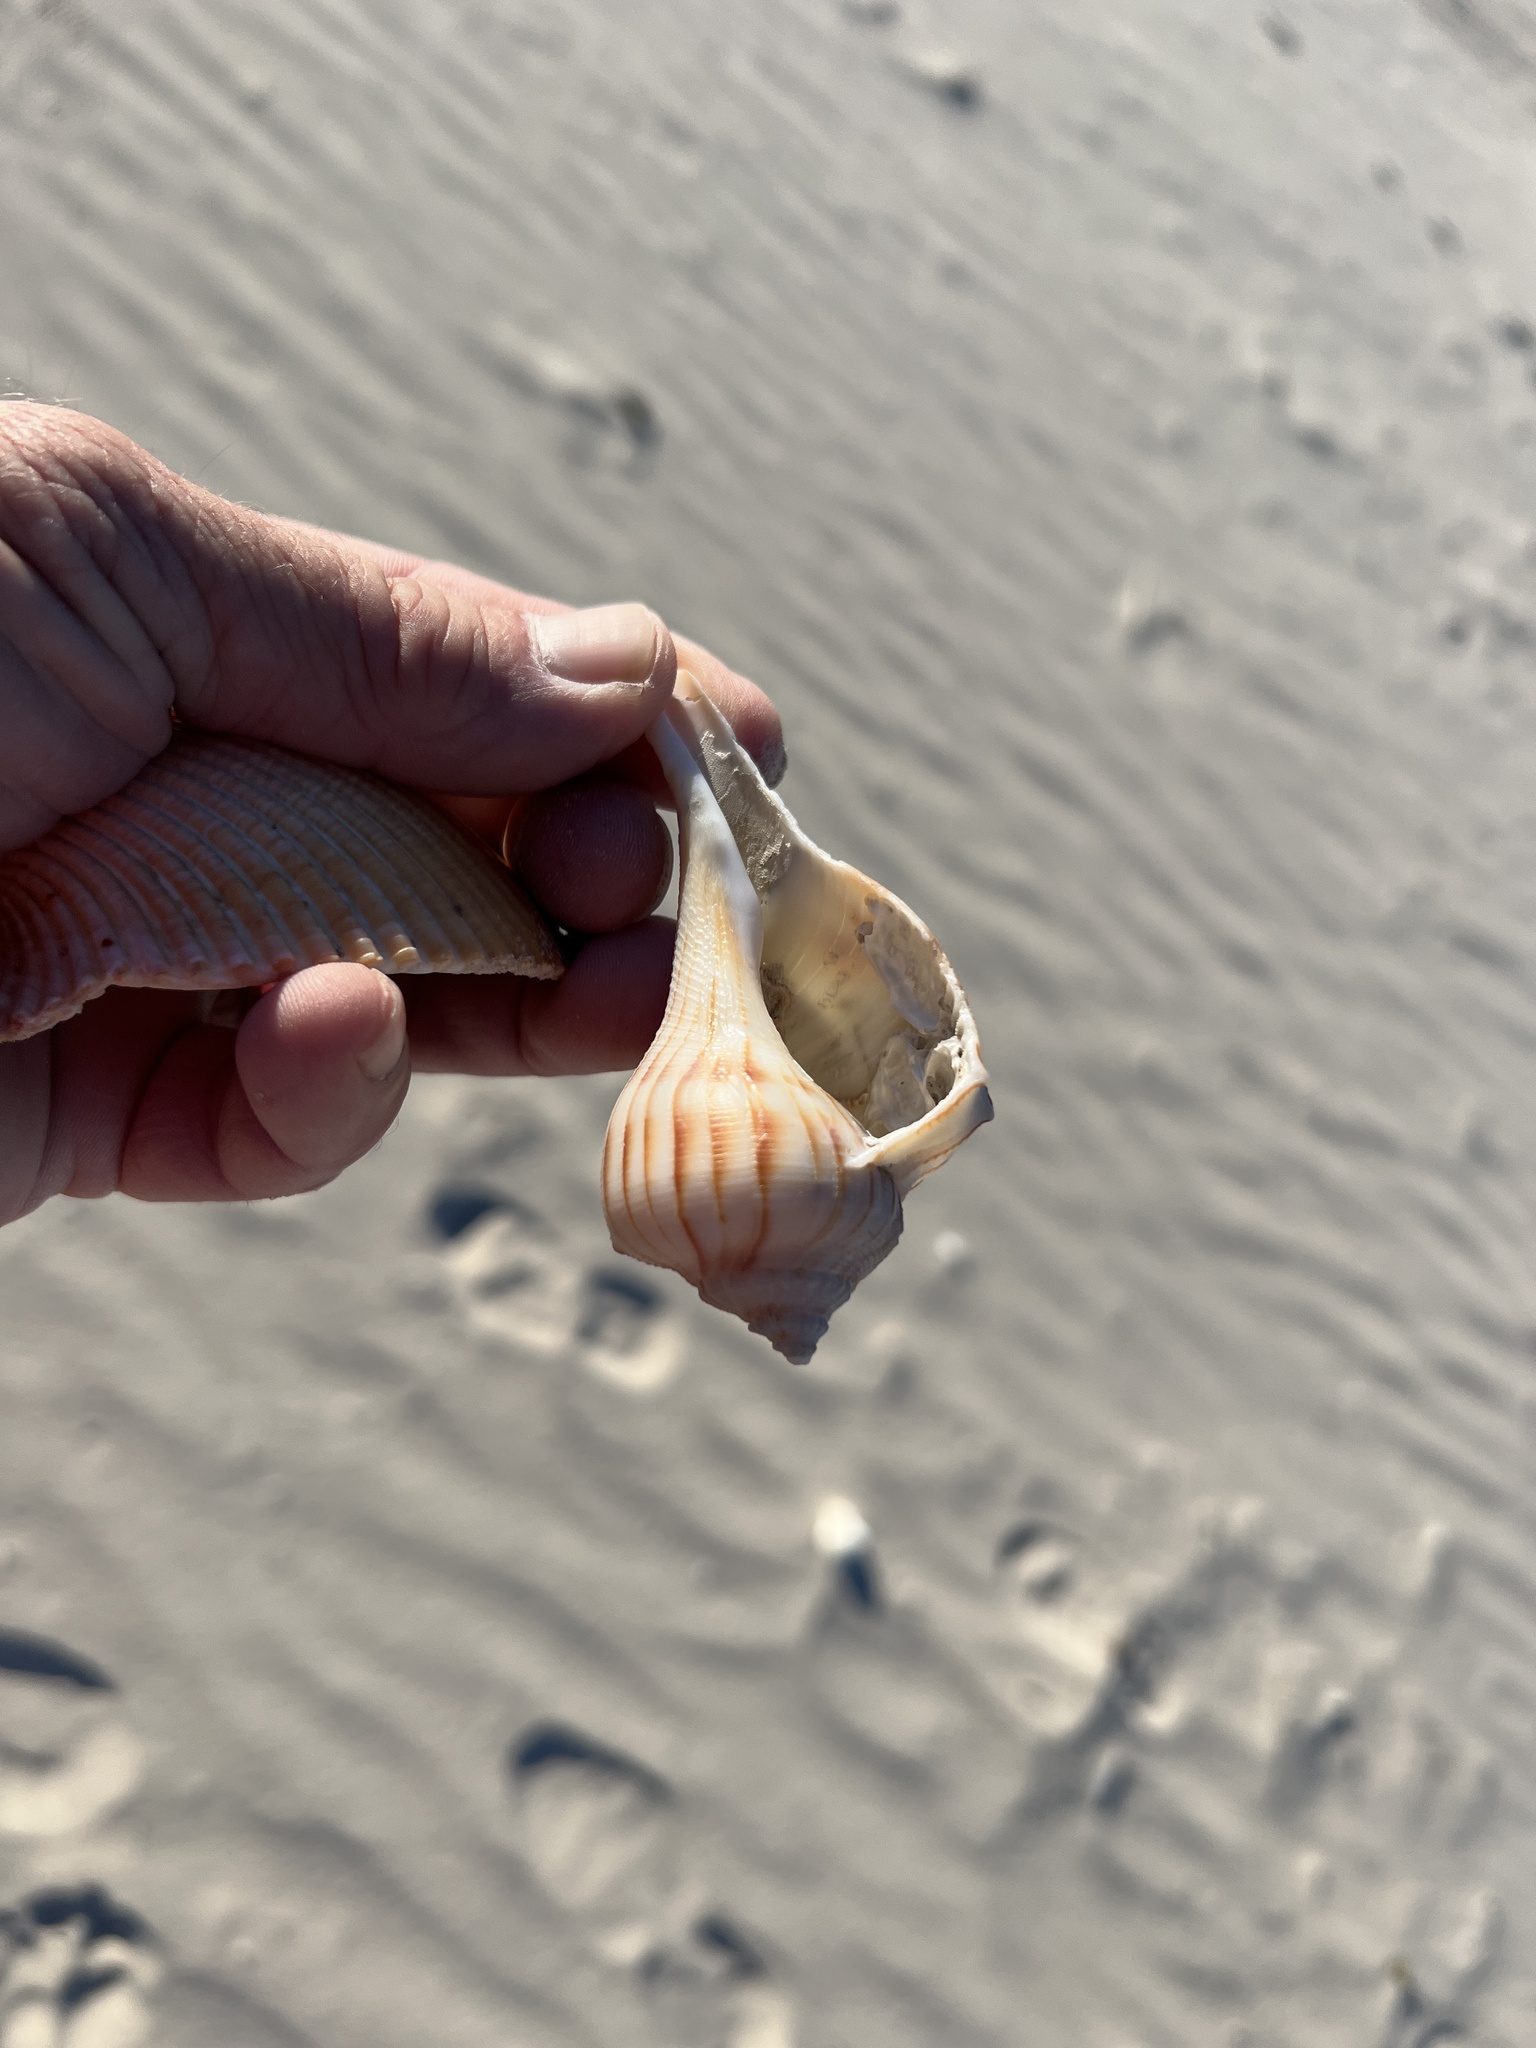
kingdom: Animalia
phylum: Mollusca
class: Gastropoda
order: Neogastropoda
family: Busyconidae
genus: Sinistrofulgur
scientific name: Sinistrofulgur pulleyi
